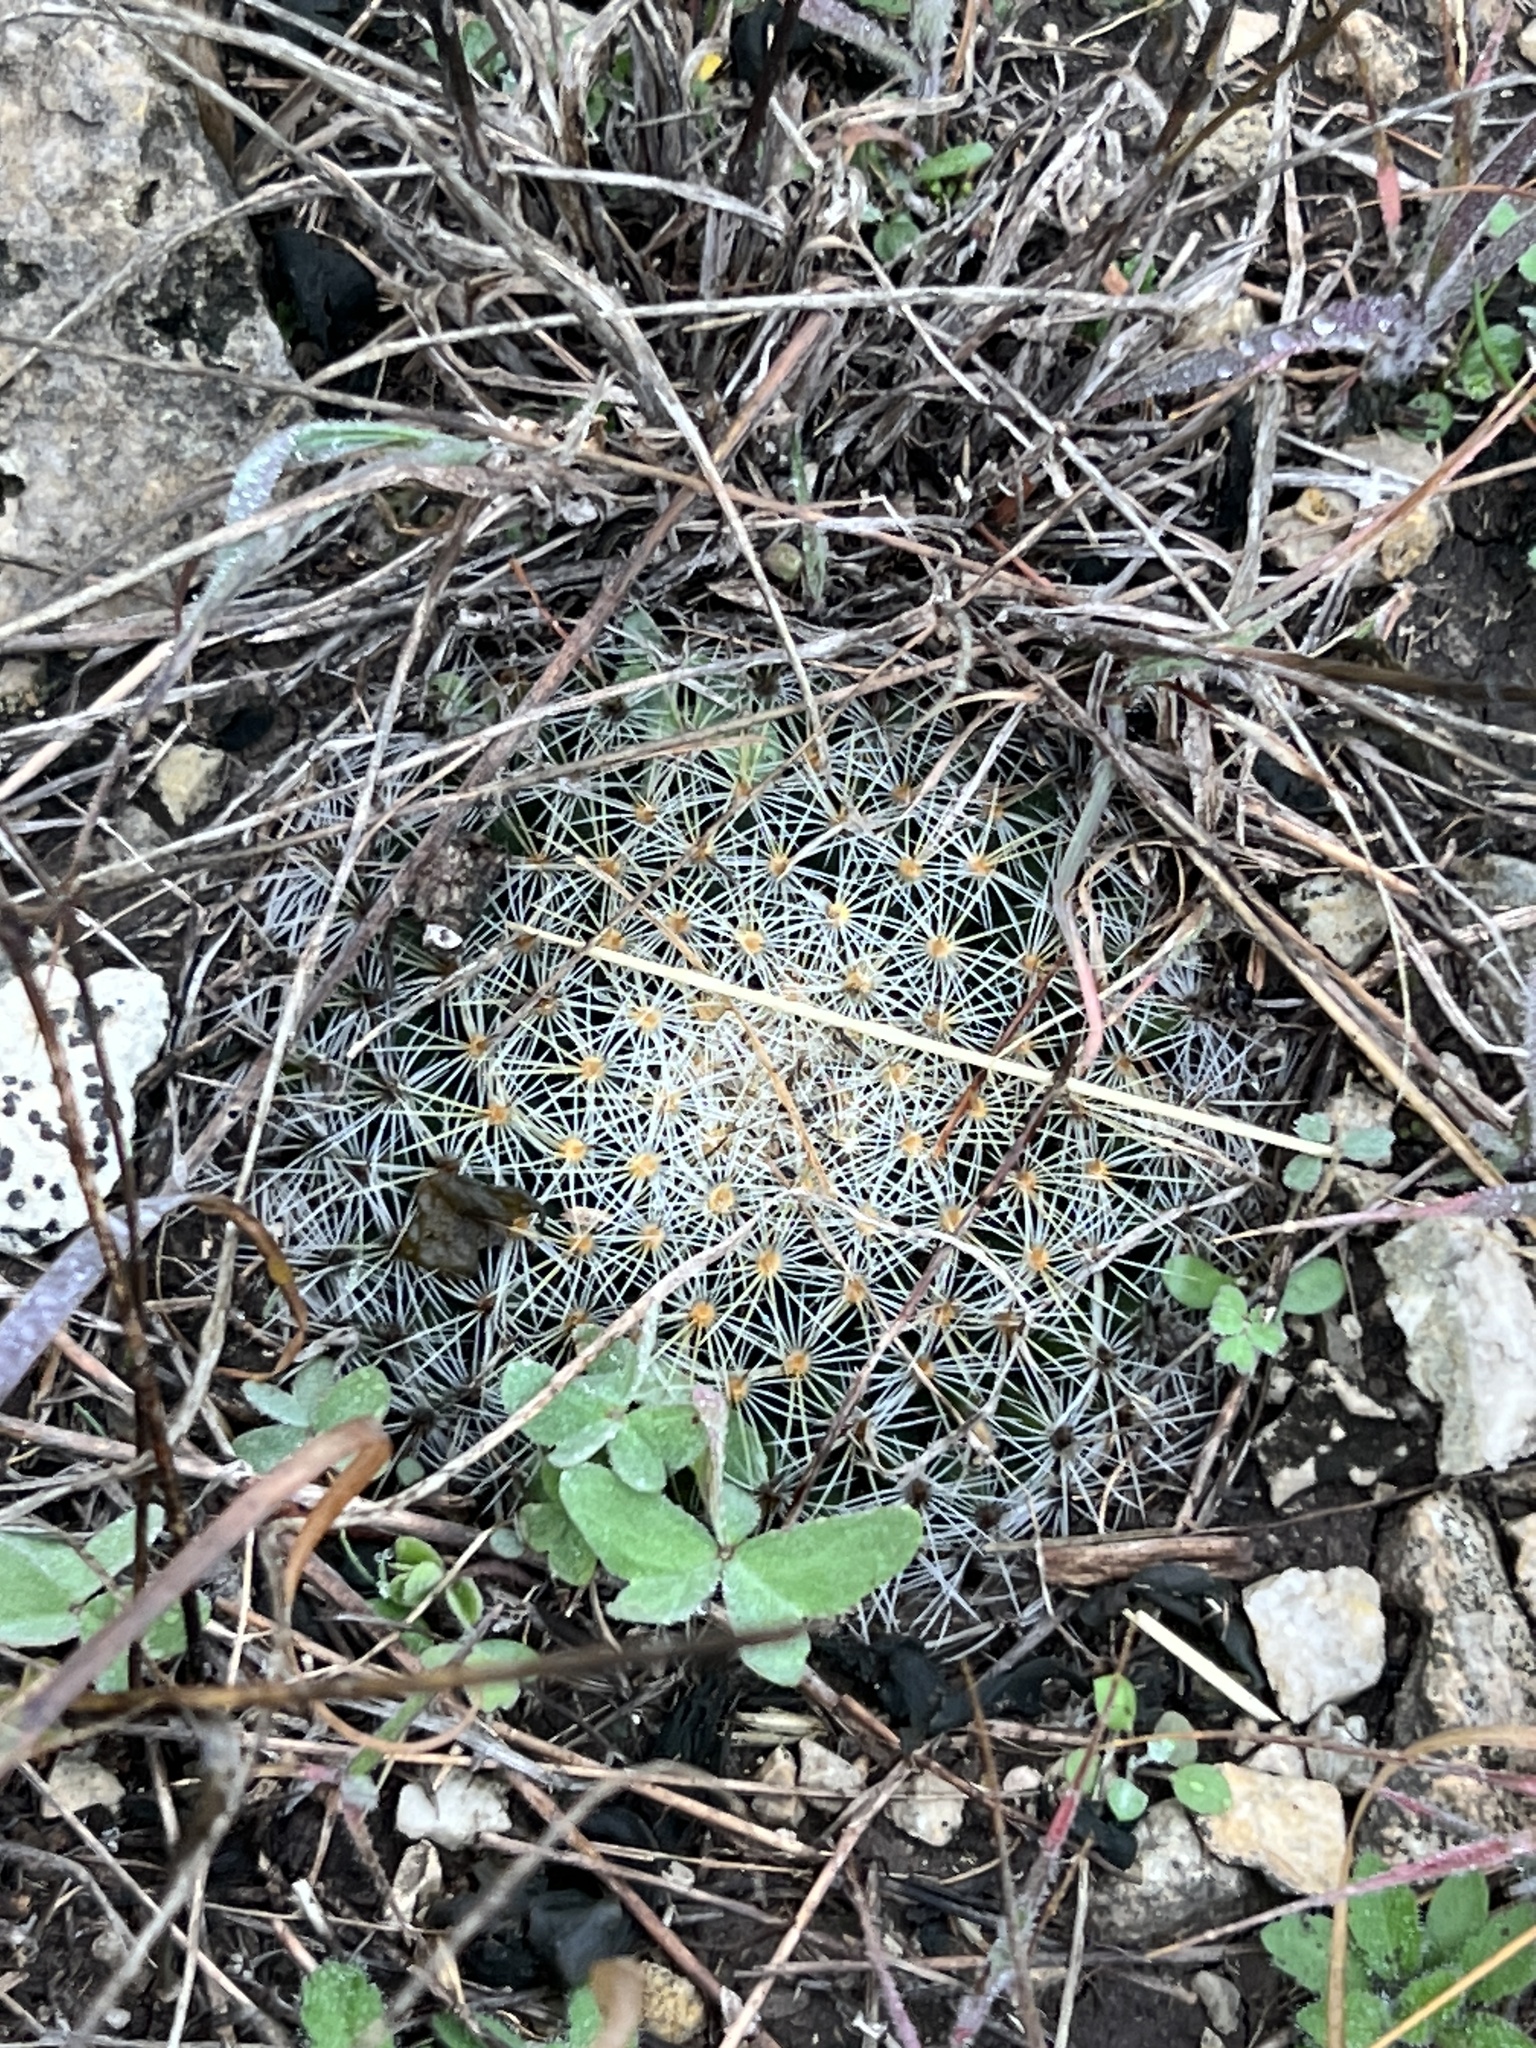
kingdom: Plantae
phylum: Tracheophyta
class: Magnoliopsida
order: Caryophyllales
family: Cactaceae
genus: Mammillaria
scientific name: Mammillaria heyderi
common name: Little nipple cactus
